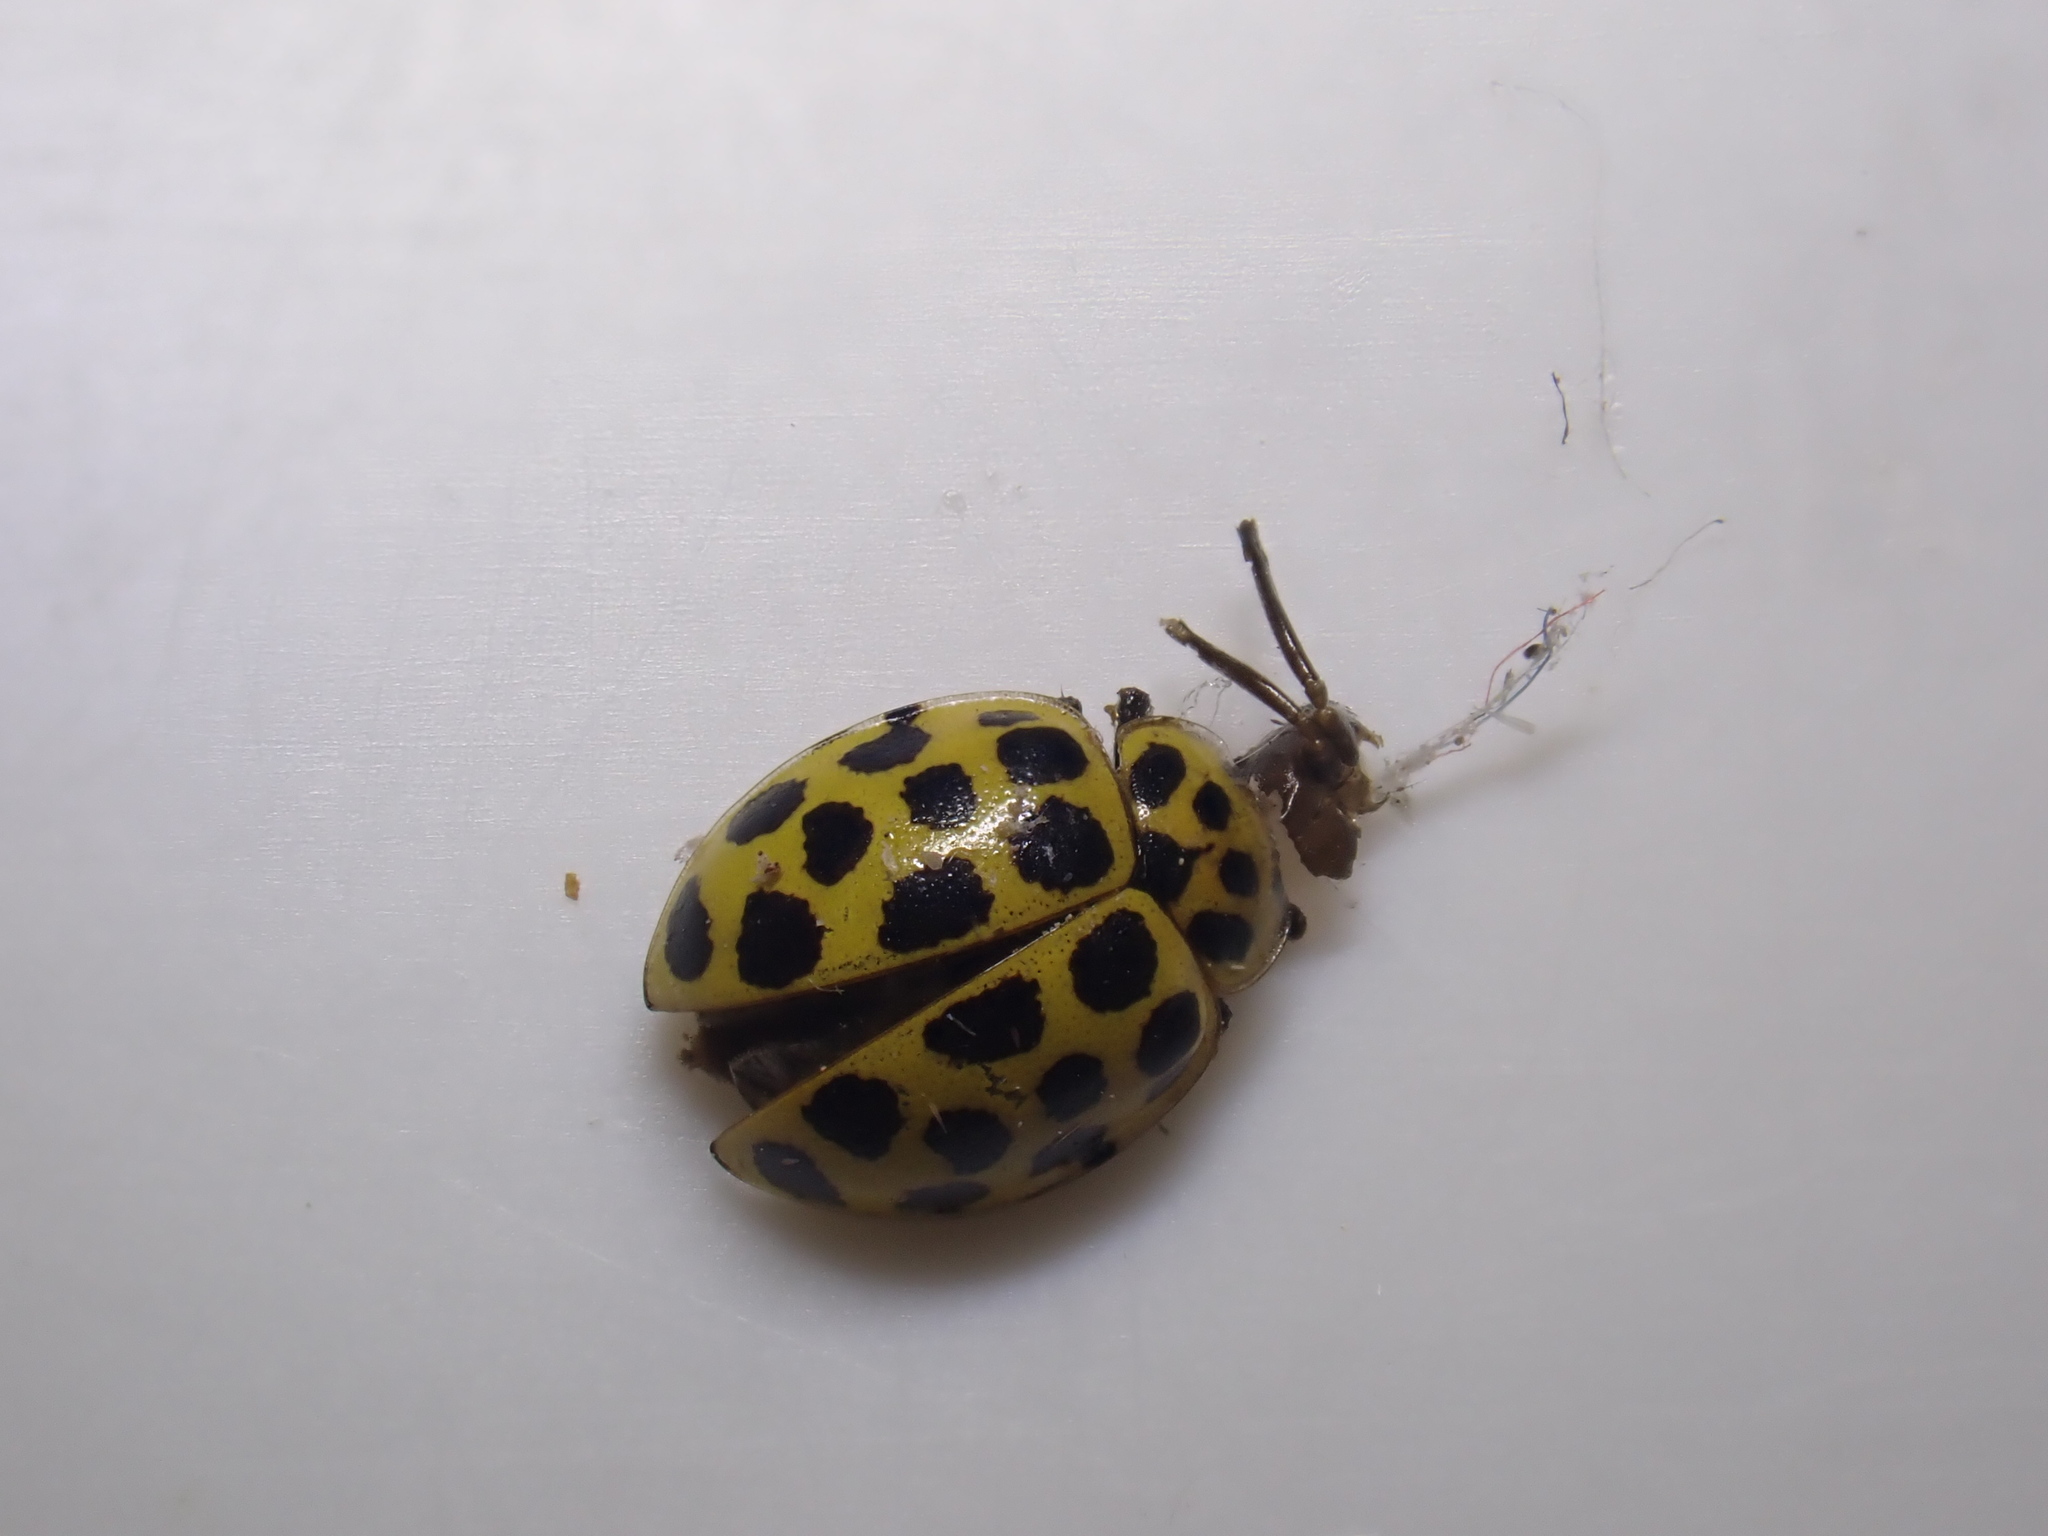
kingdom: Animalia
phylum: Arthropoda
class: Insecta
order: Coleoptera
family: Coccinellidae
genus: Psyllobora
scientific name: Psyllobora vigintiduopunctata
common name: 22-spot ladybird
